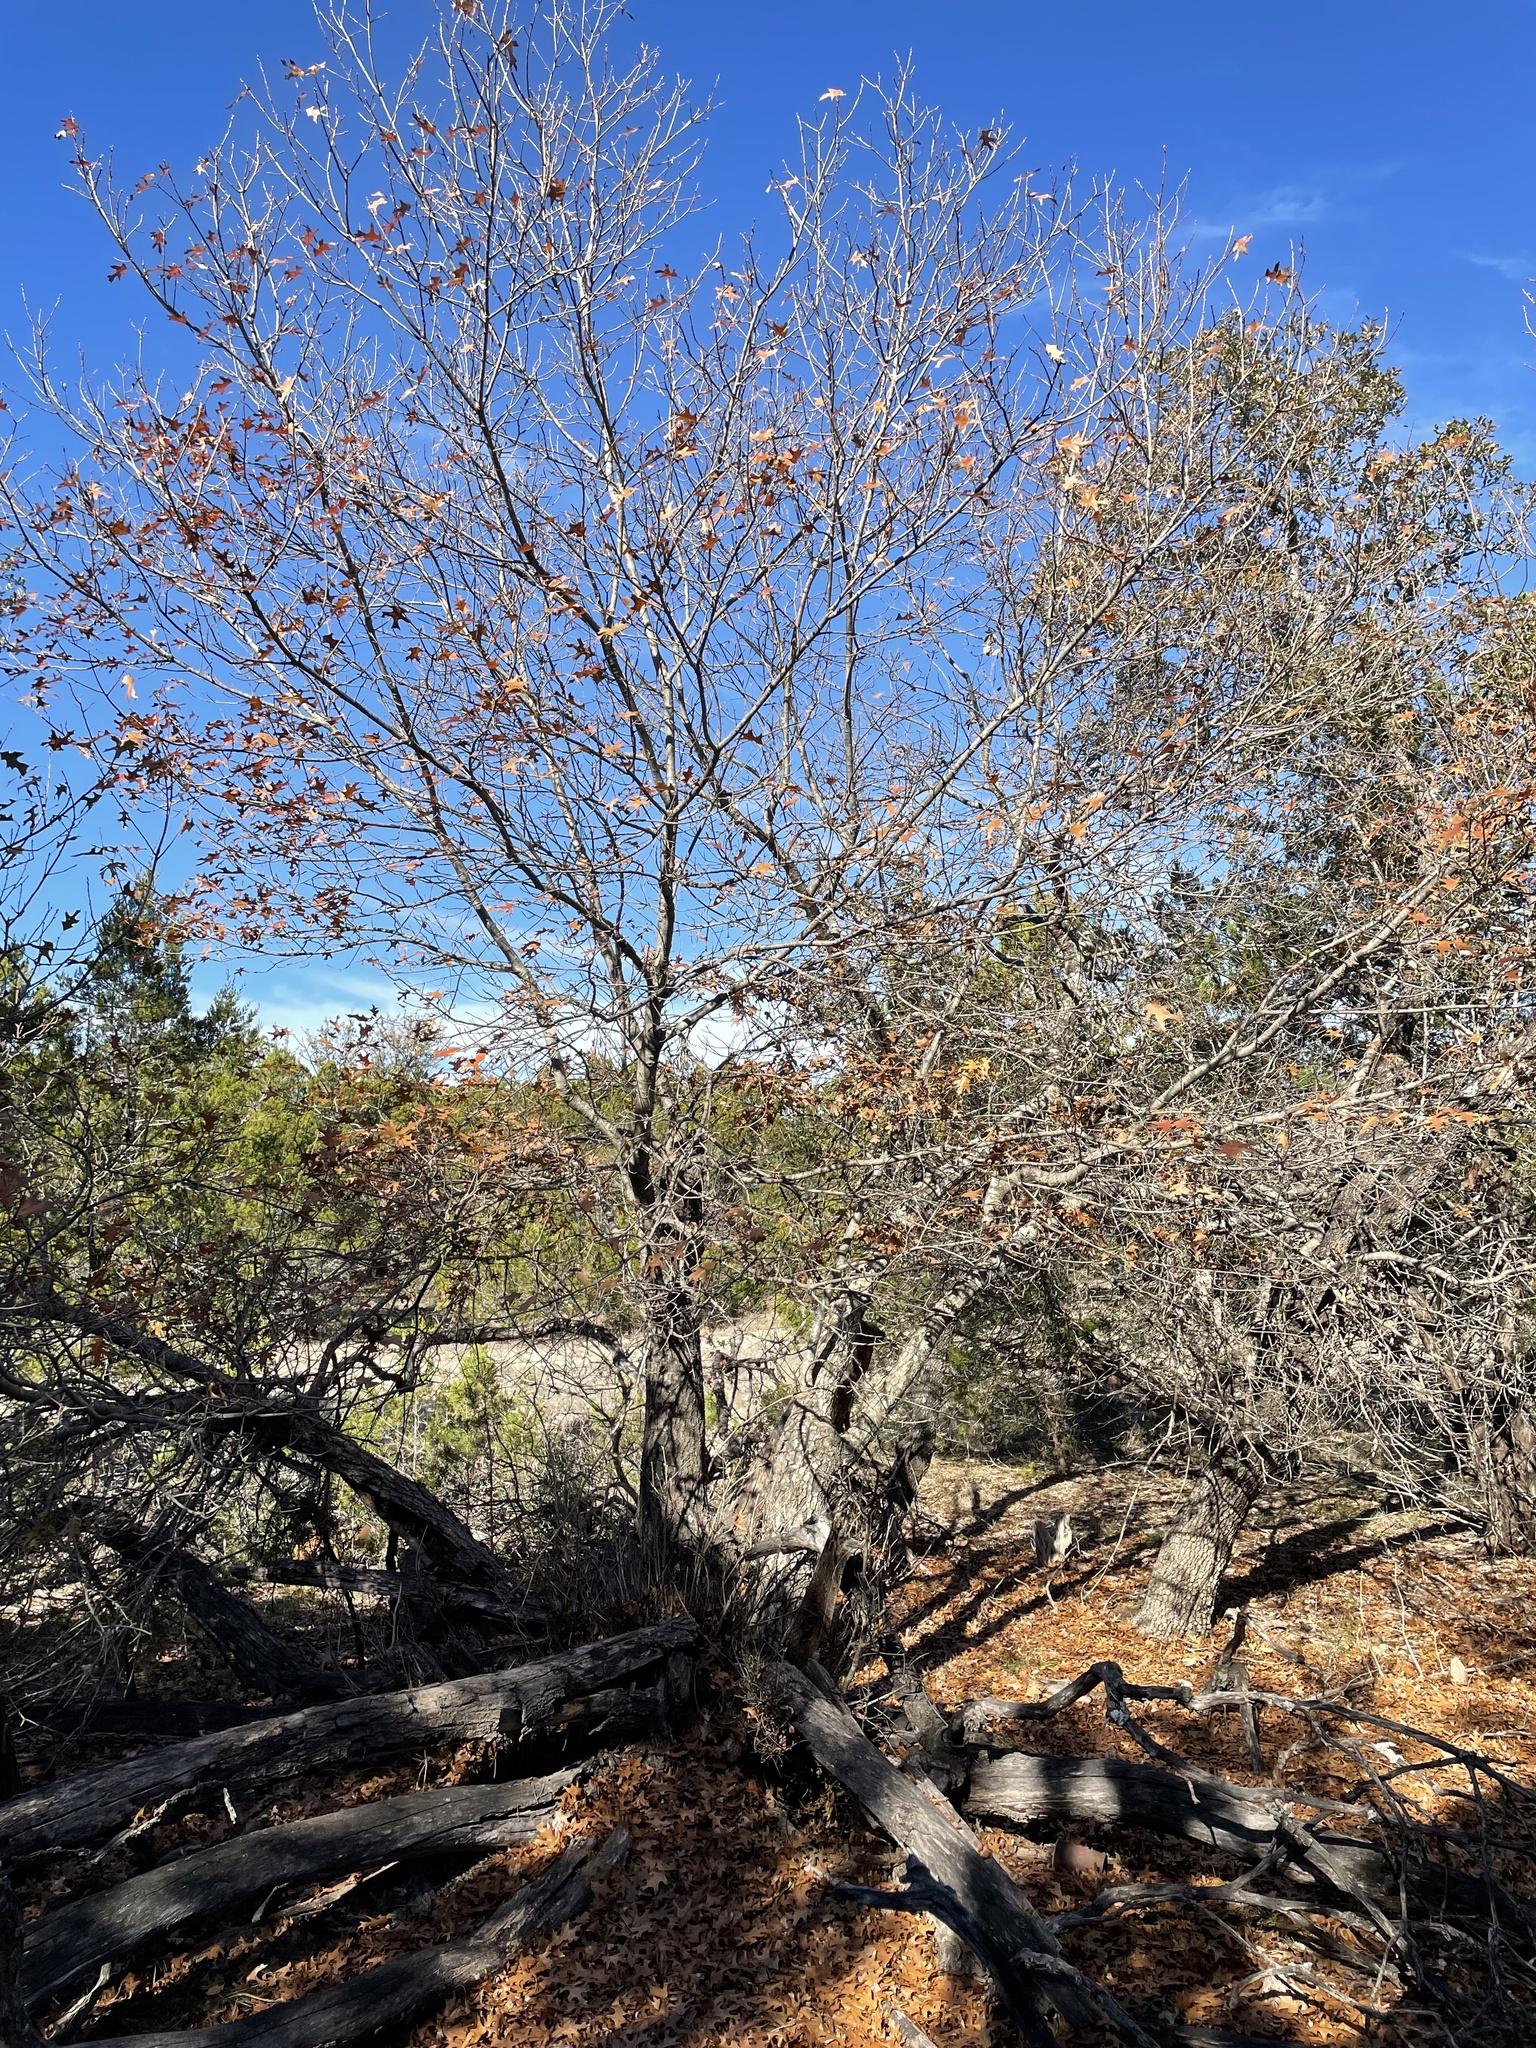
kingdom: Plantae
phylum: Tracheophyta
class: Magnoliopsida
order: Fagales
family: Fagaceae
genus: Quercus
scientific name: Quercus buckleyi
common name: Buckley oak
